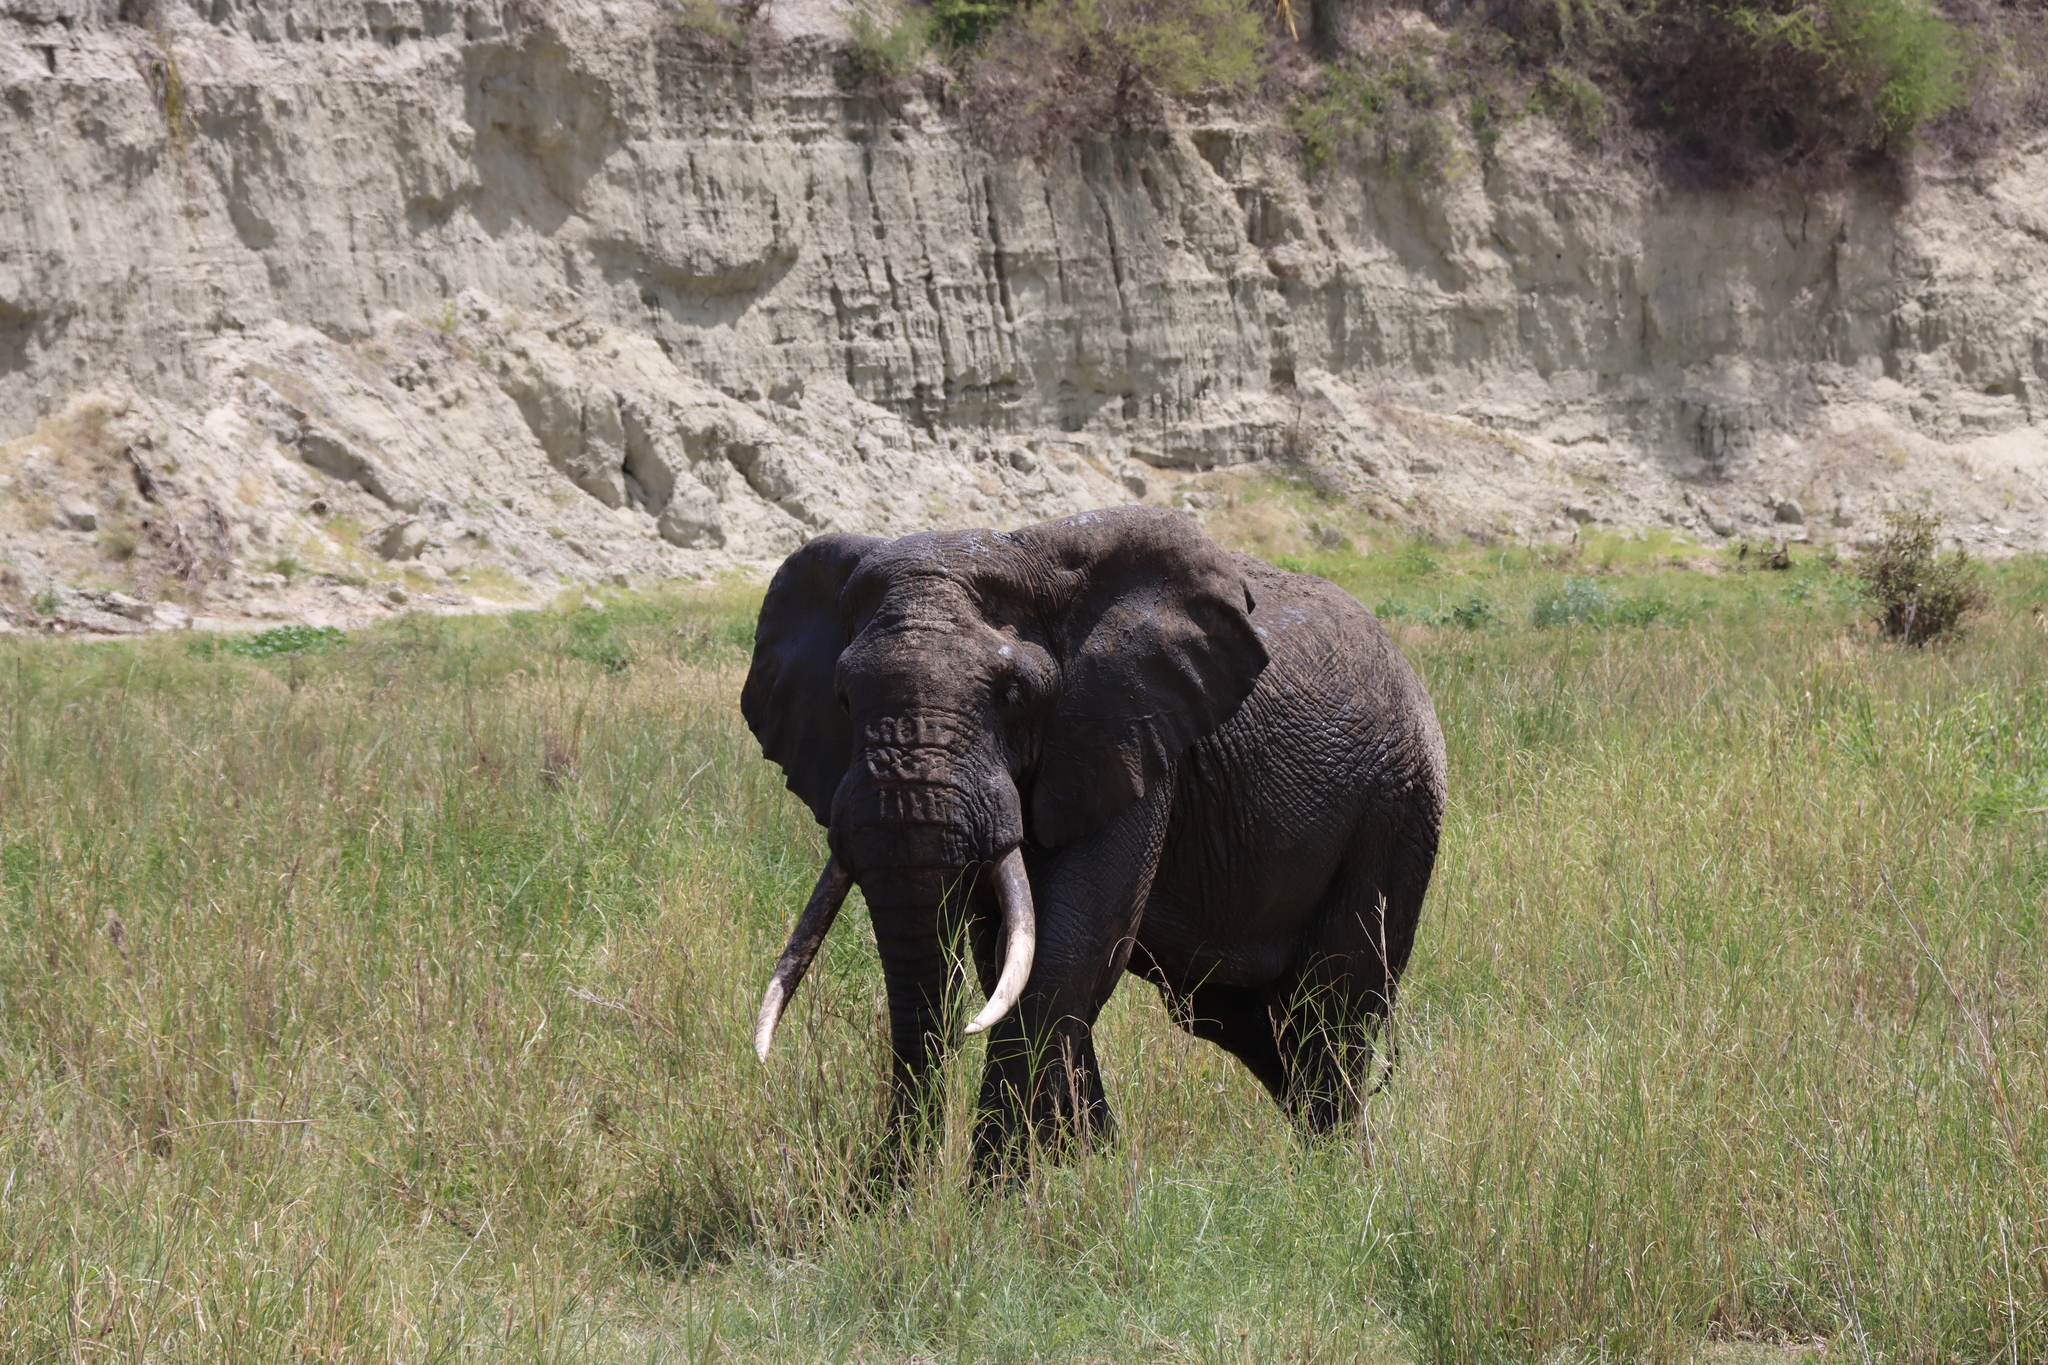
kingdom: Animalia
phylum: Chordata
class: Mammalia
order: Proboscidea
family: Elephantidae
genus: Loxodonta
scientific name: Loxodonta africana
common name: African elephant
